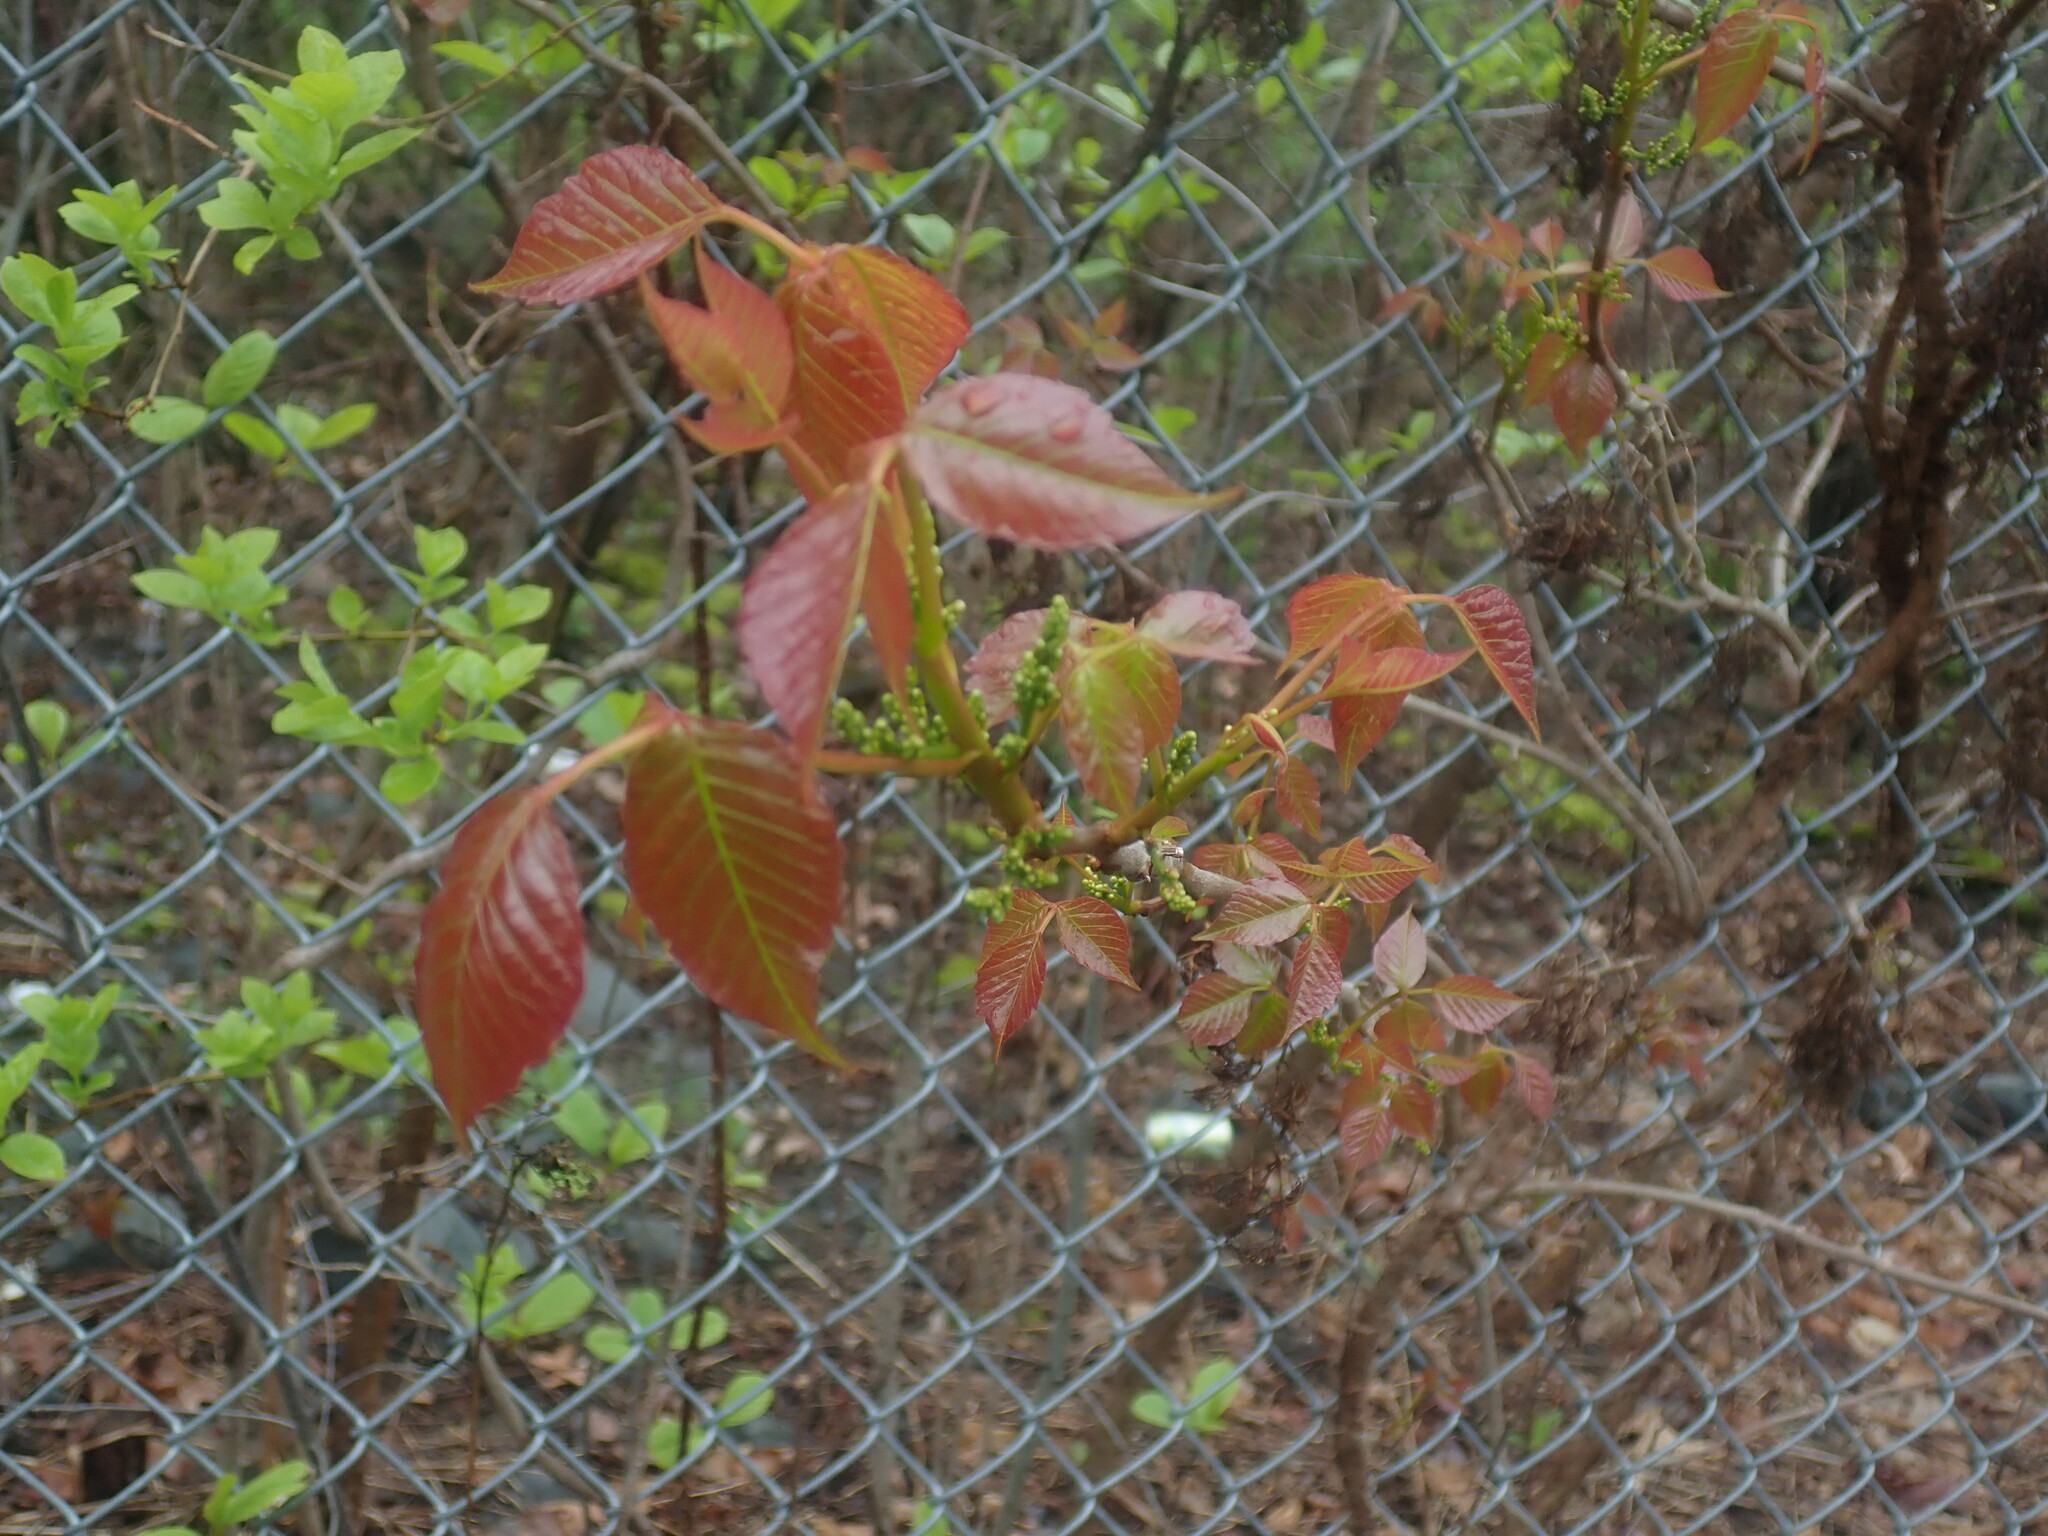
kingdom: Plantae
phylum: Tracheophyta
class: Magnoliopsida
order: Sapindales
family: Anacardiaceae
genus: Toxicodendron
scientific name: Toxicodendron radicans
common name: Poison ivy
